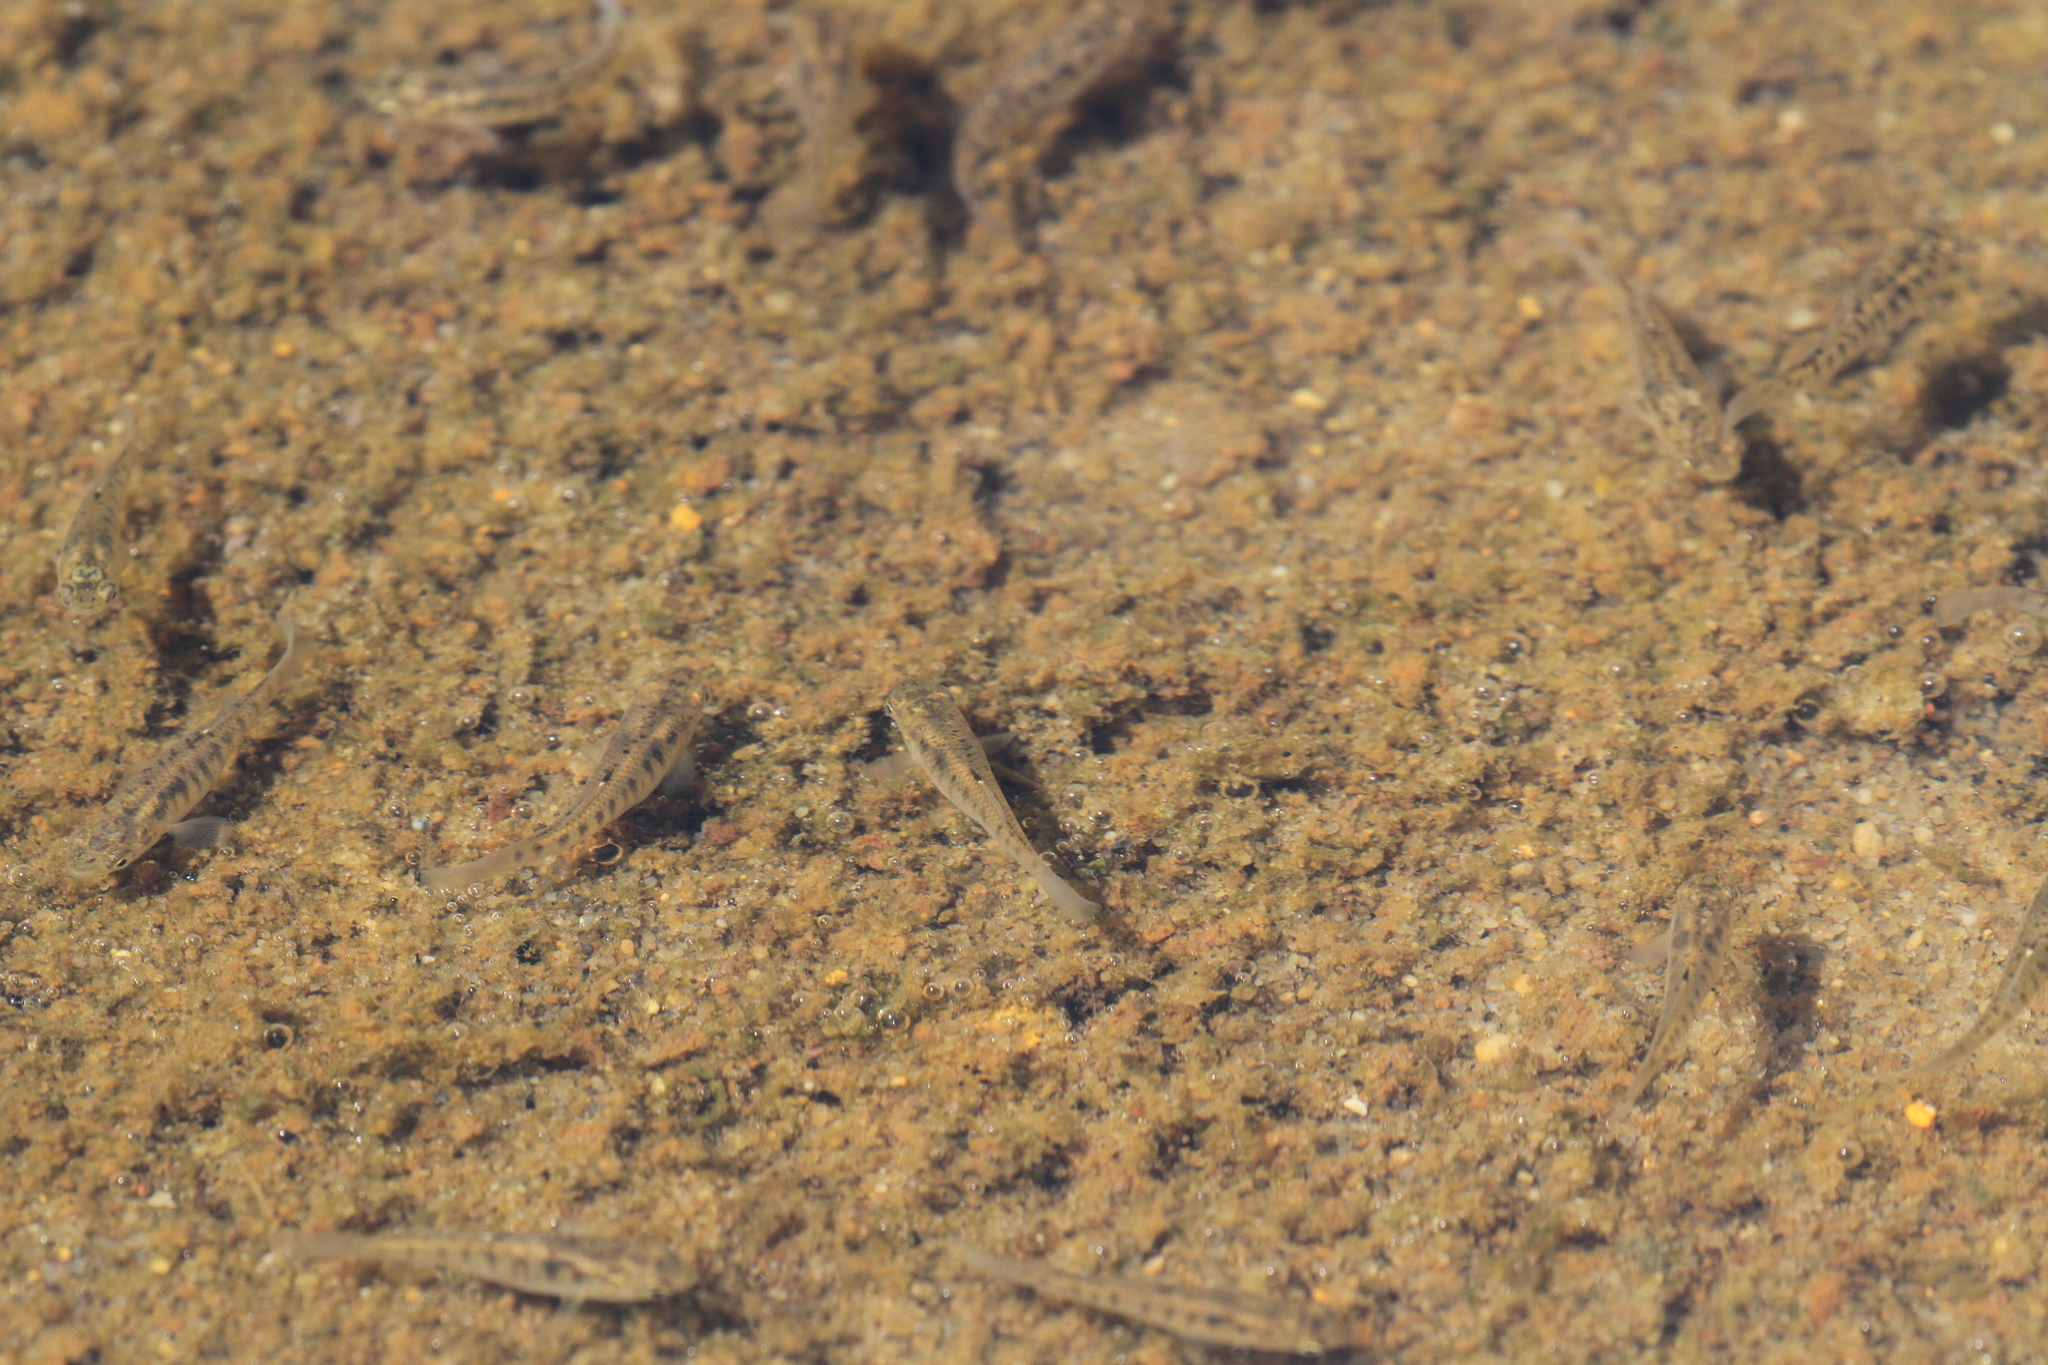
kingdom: Animalia
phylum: Chordata
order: Cyprinodontiformes
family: Fundulidae
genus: Fundulus
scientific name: Fundulus diaphanus
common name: Banded killifish
